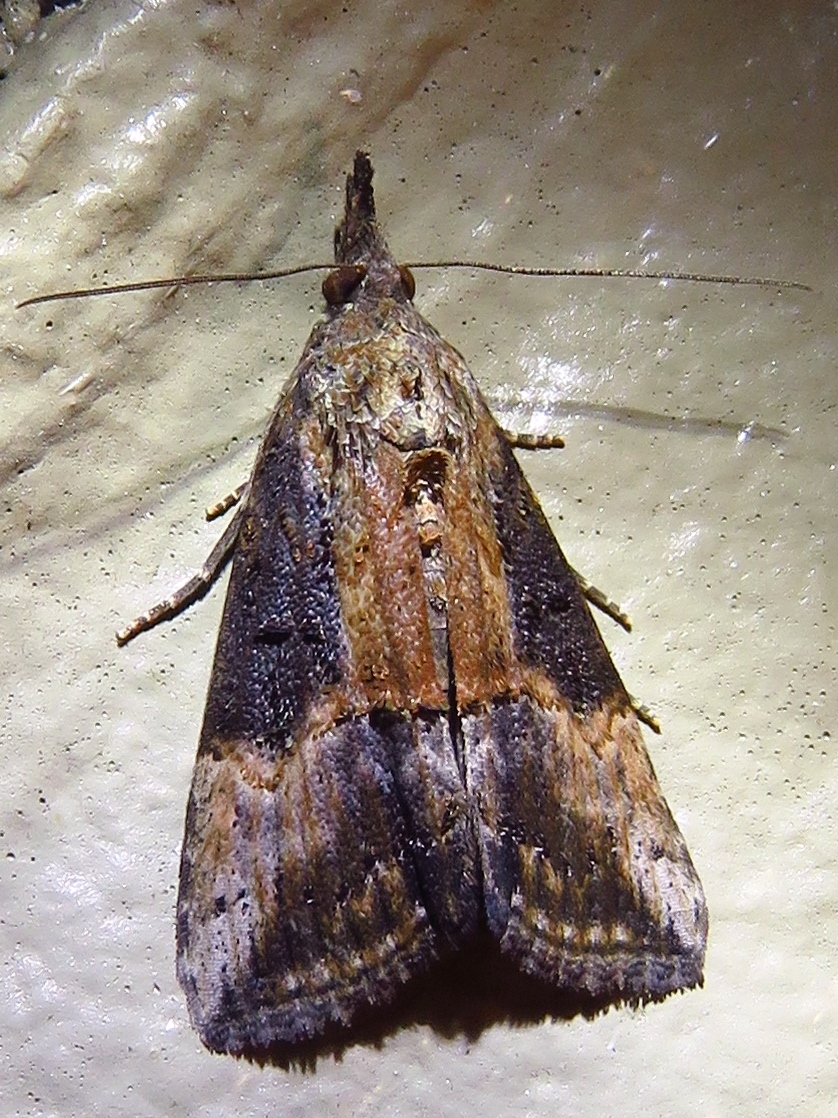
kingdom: Animalia
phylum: Arthropoda
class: Insecta
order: Lepidoptera
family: Erebidae
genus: Hypena
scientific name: Hypena scabra
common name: Green cloverworm
